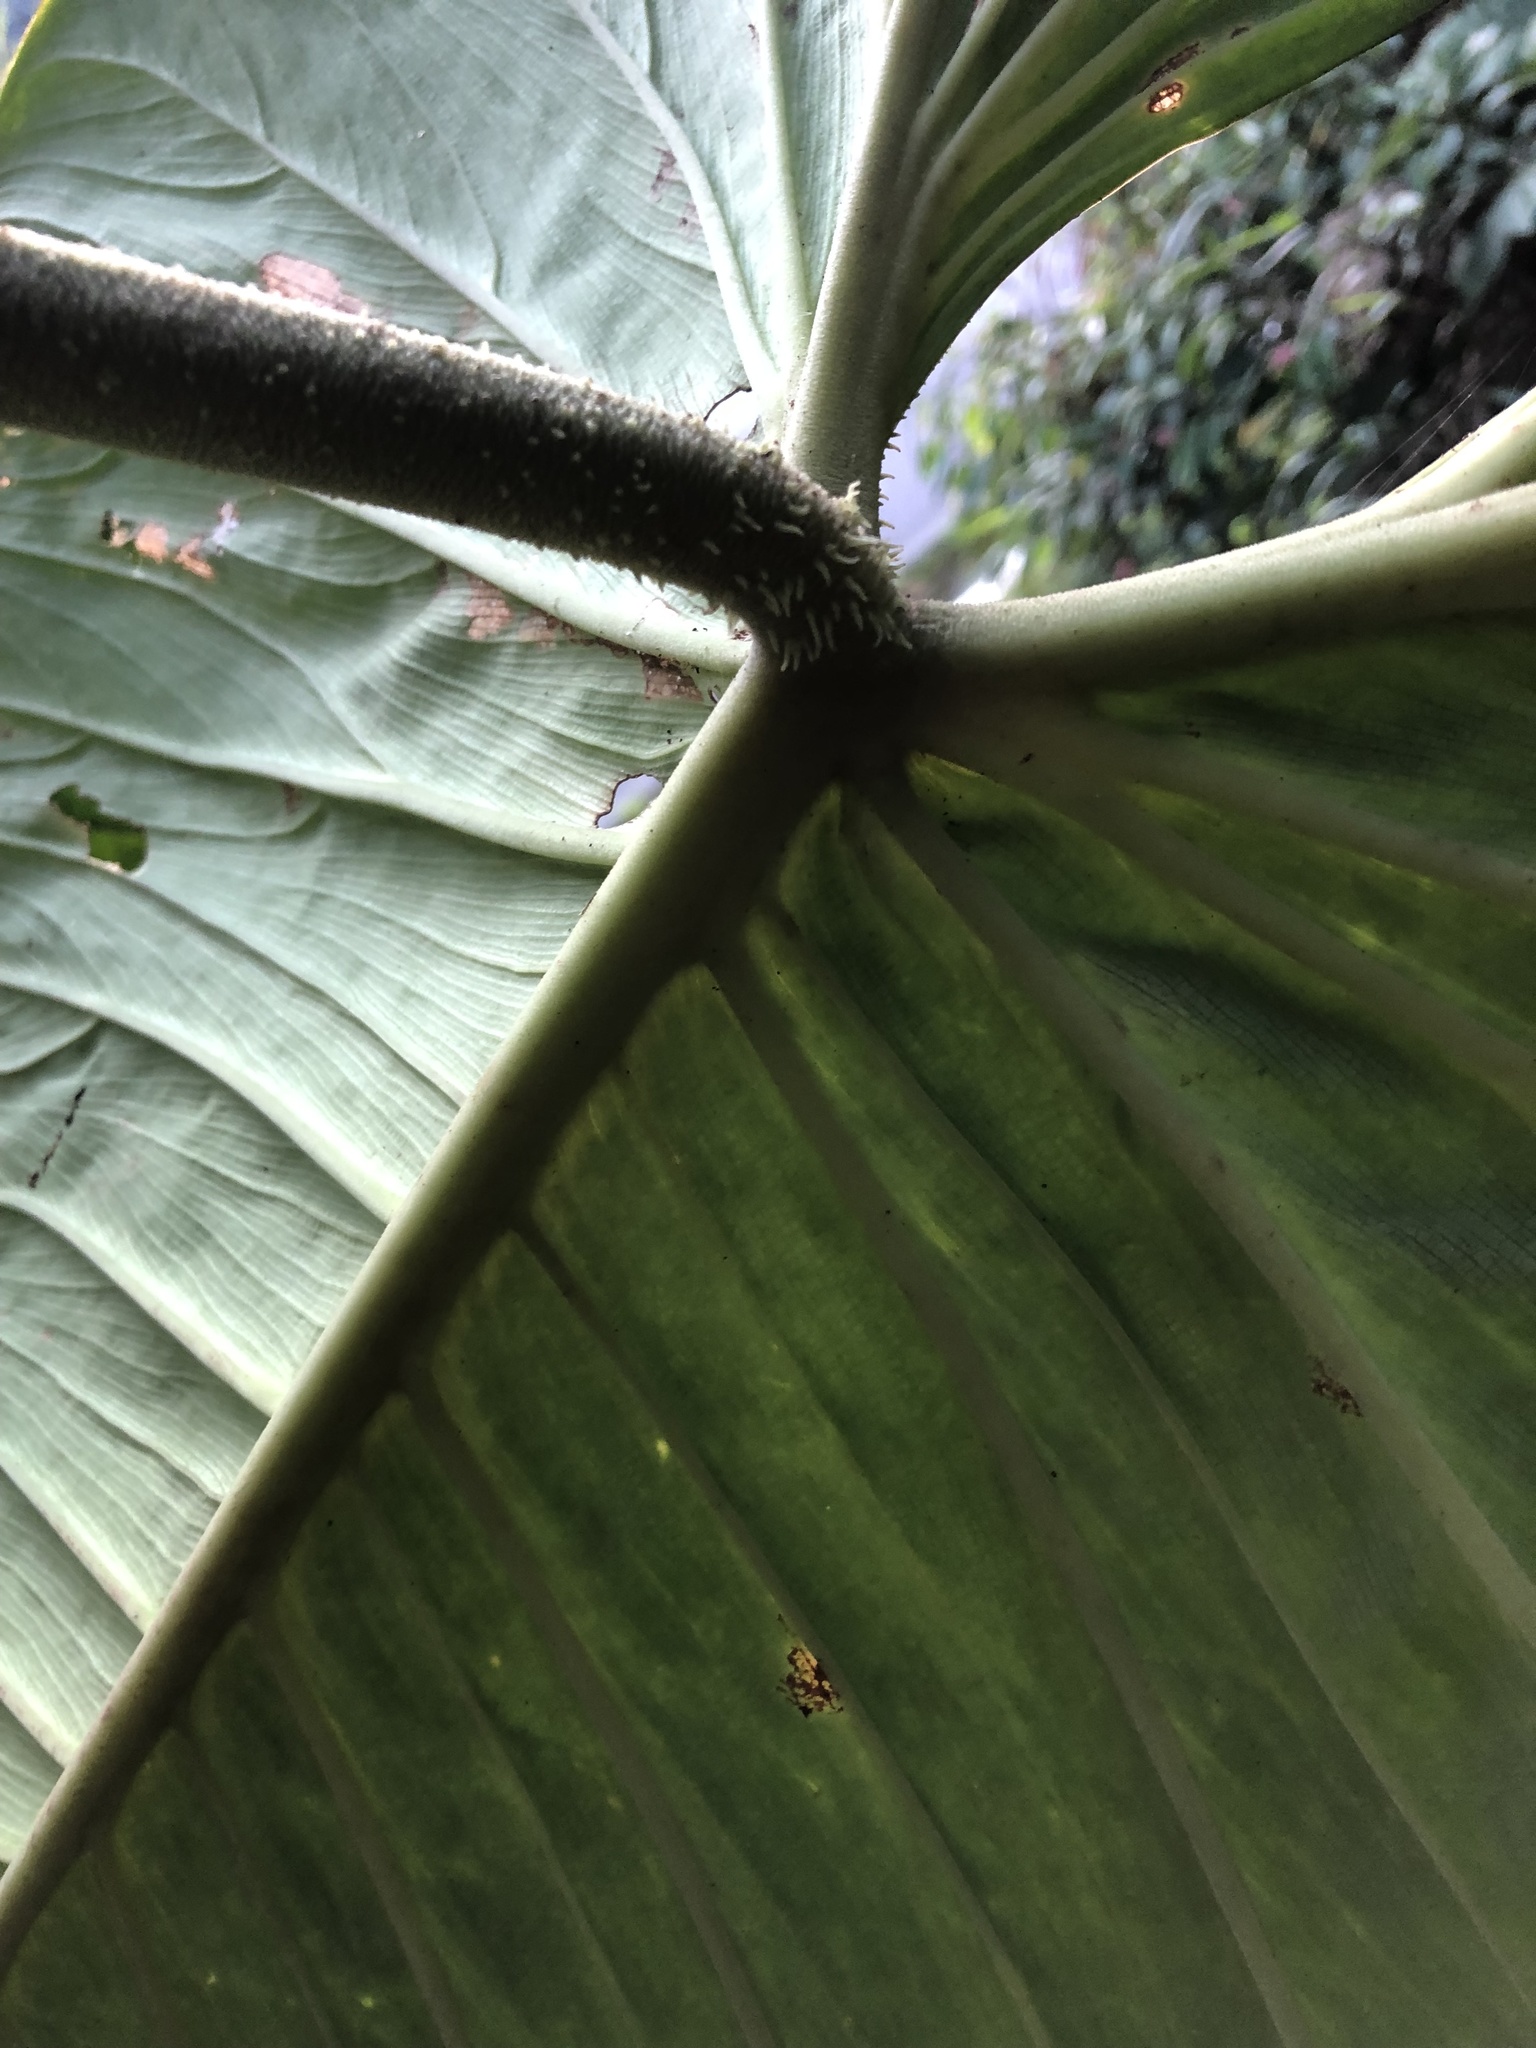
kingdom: Plantae
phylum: Tracheophyta
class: Liliopsida
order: Alismatales
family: Araceae
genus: Philodendron
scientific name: Philodendron verrucosum
